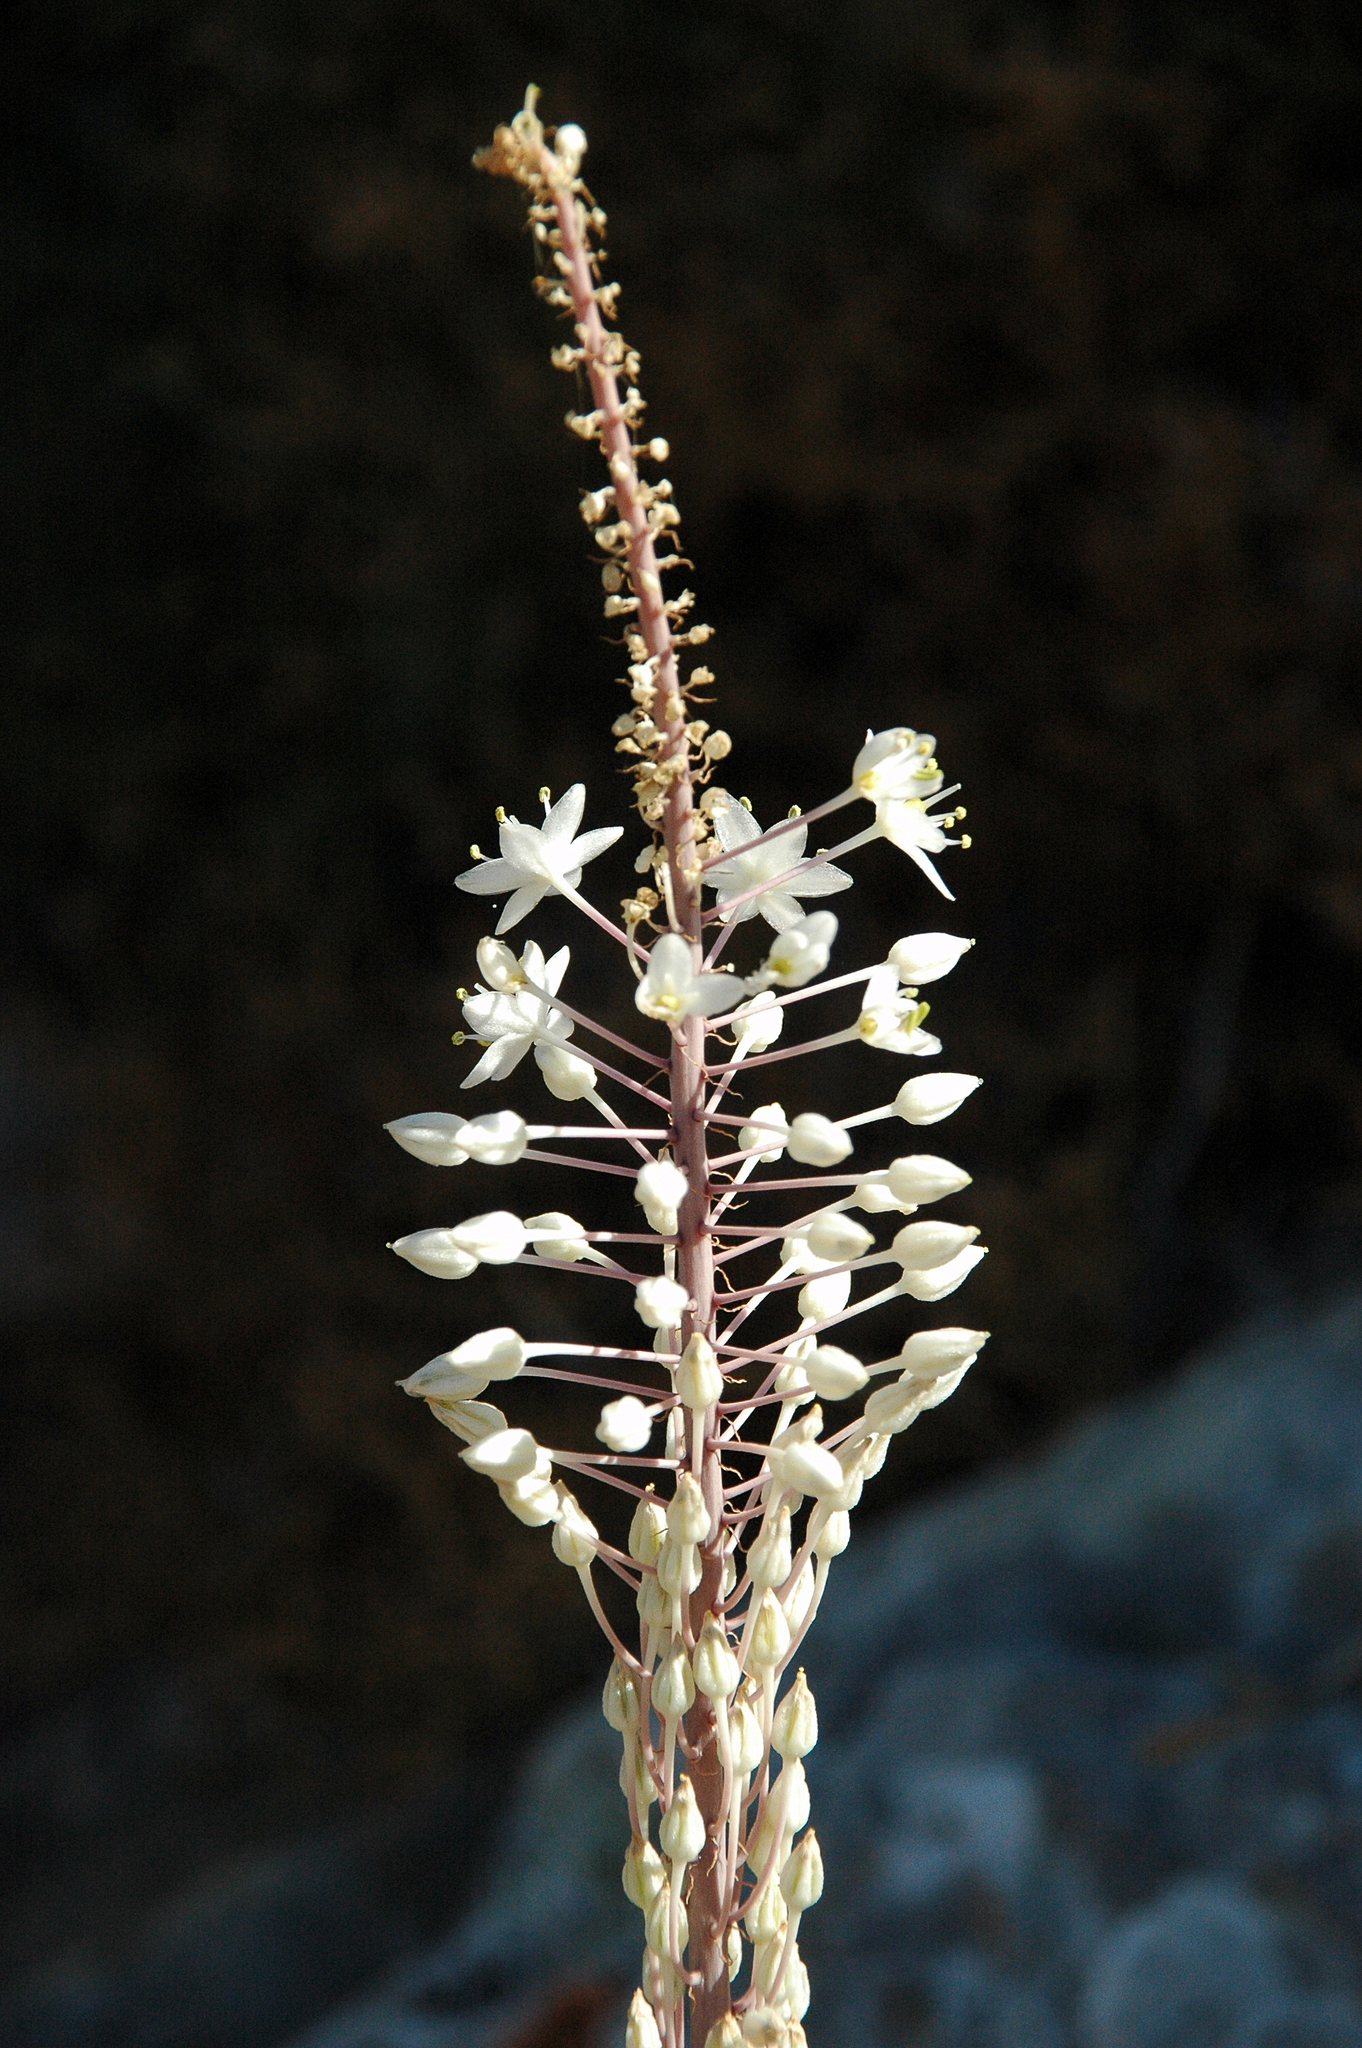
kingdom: Plantae
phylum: Tracheophyta
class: Liliopsida
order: Asparagales
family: Asparagaceae
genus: Drimia
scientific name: Drimia numidica
